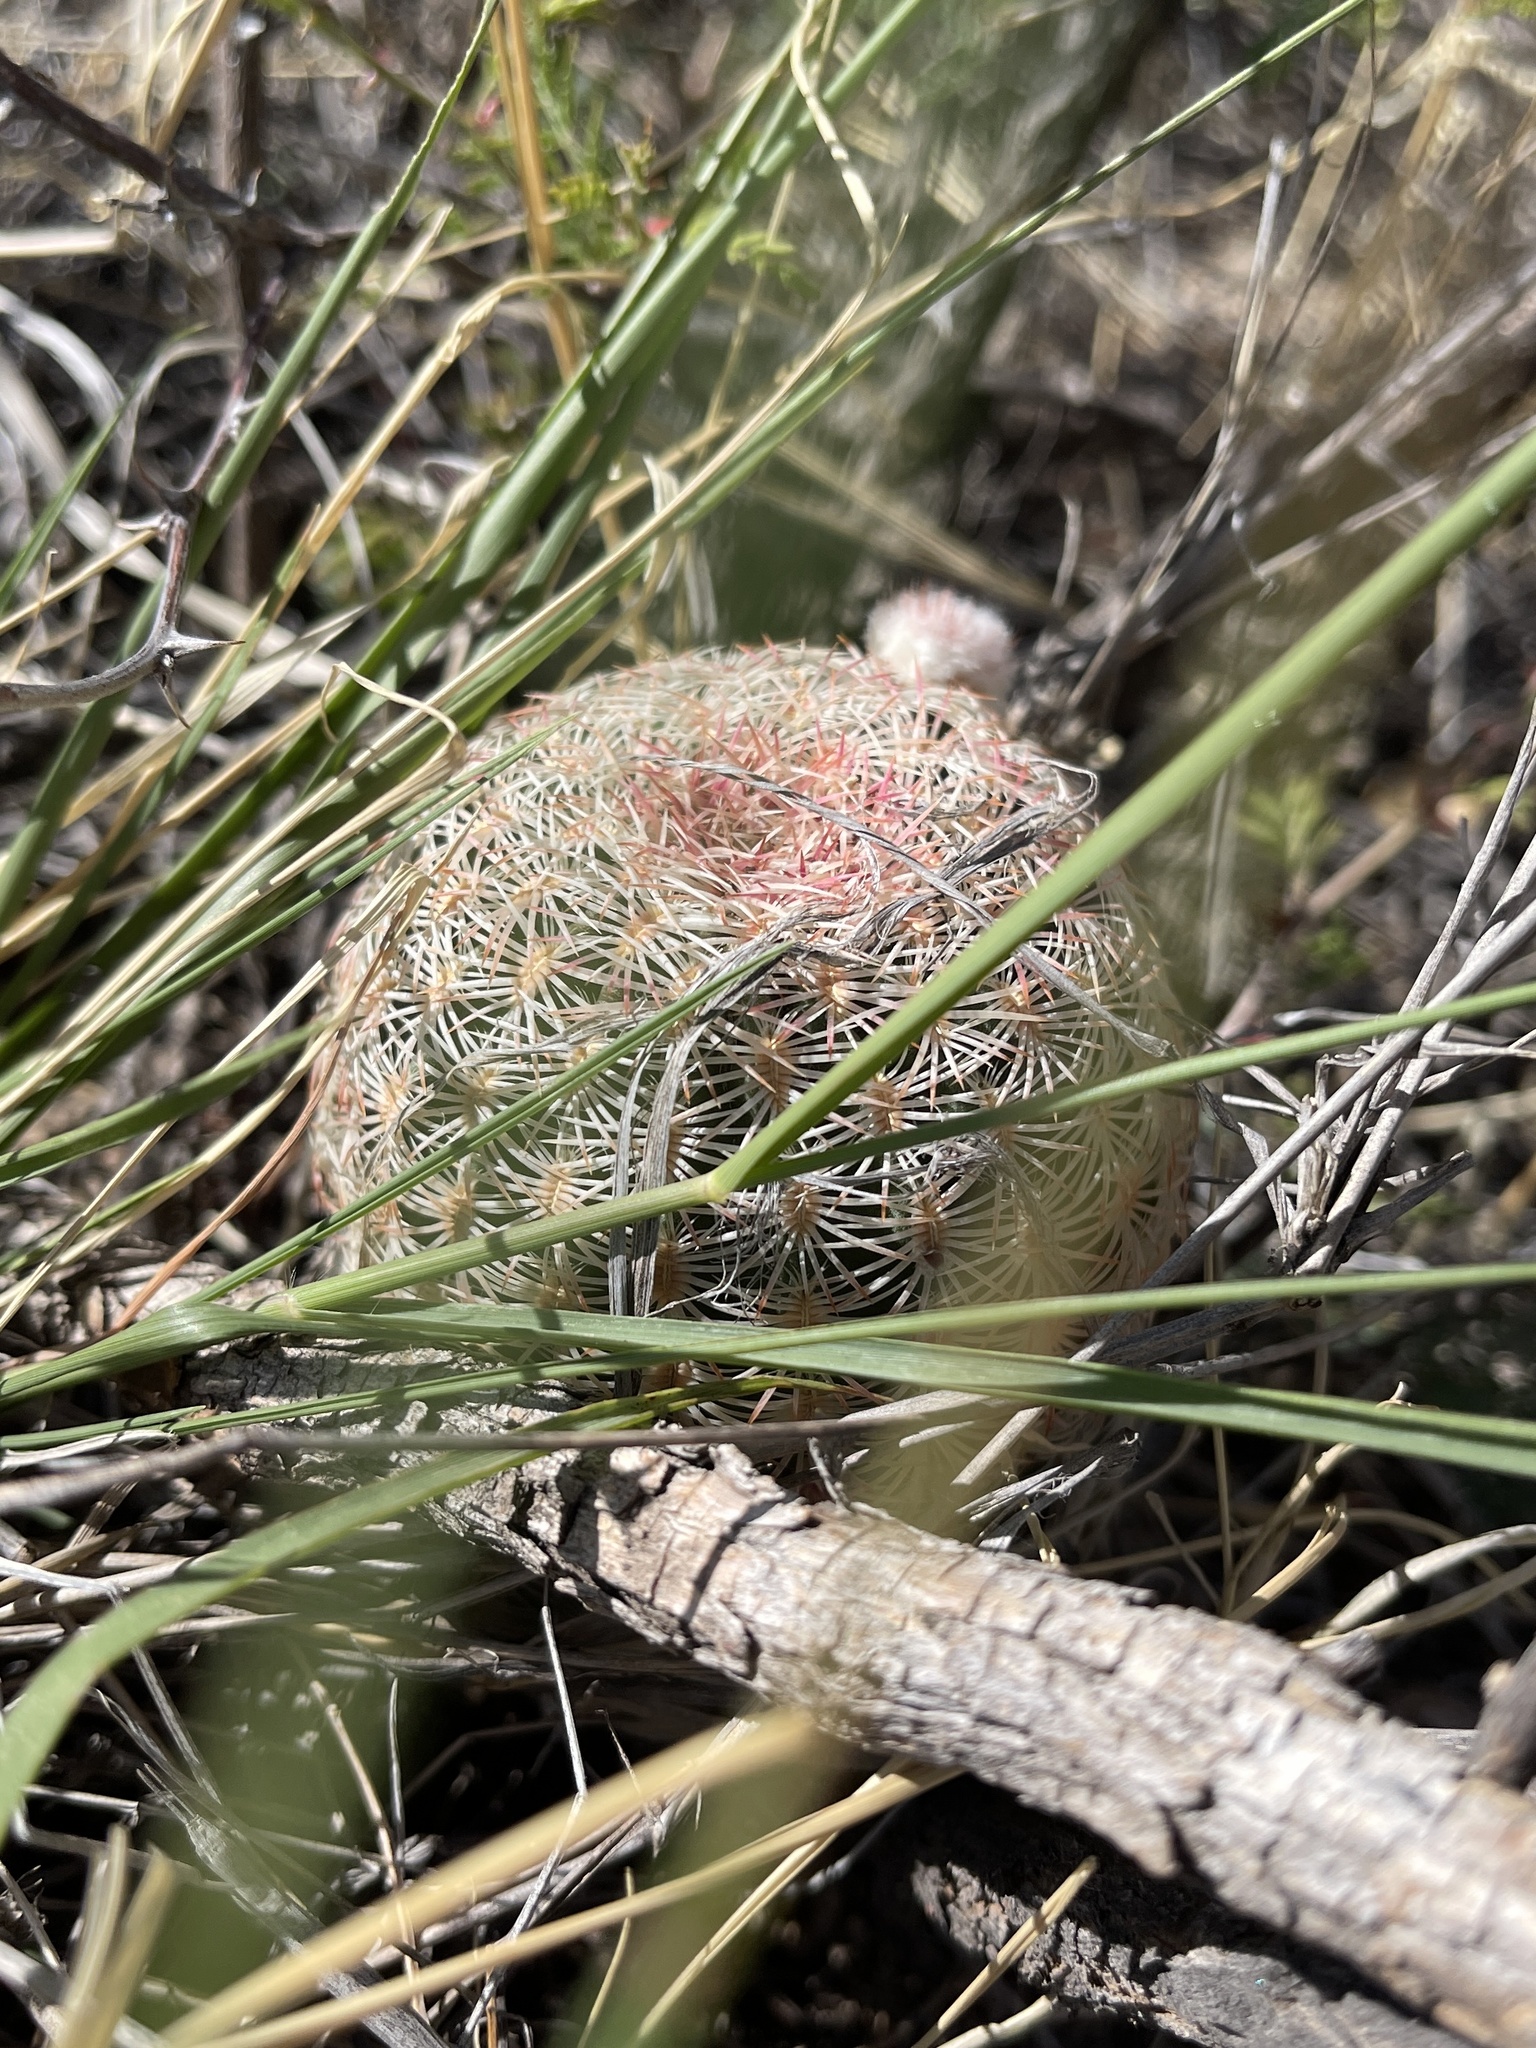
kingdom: Plantae
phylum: Tracheophyta
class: Magnoliopsida
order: Caryophyllales
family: Cactaceae
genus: Echinocereus
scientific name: Echinocereus rigidissimus
